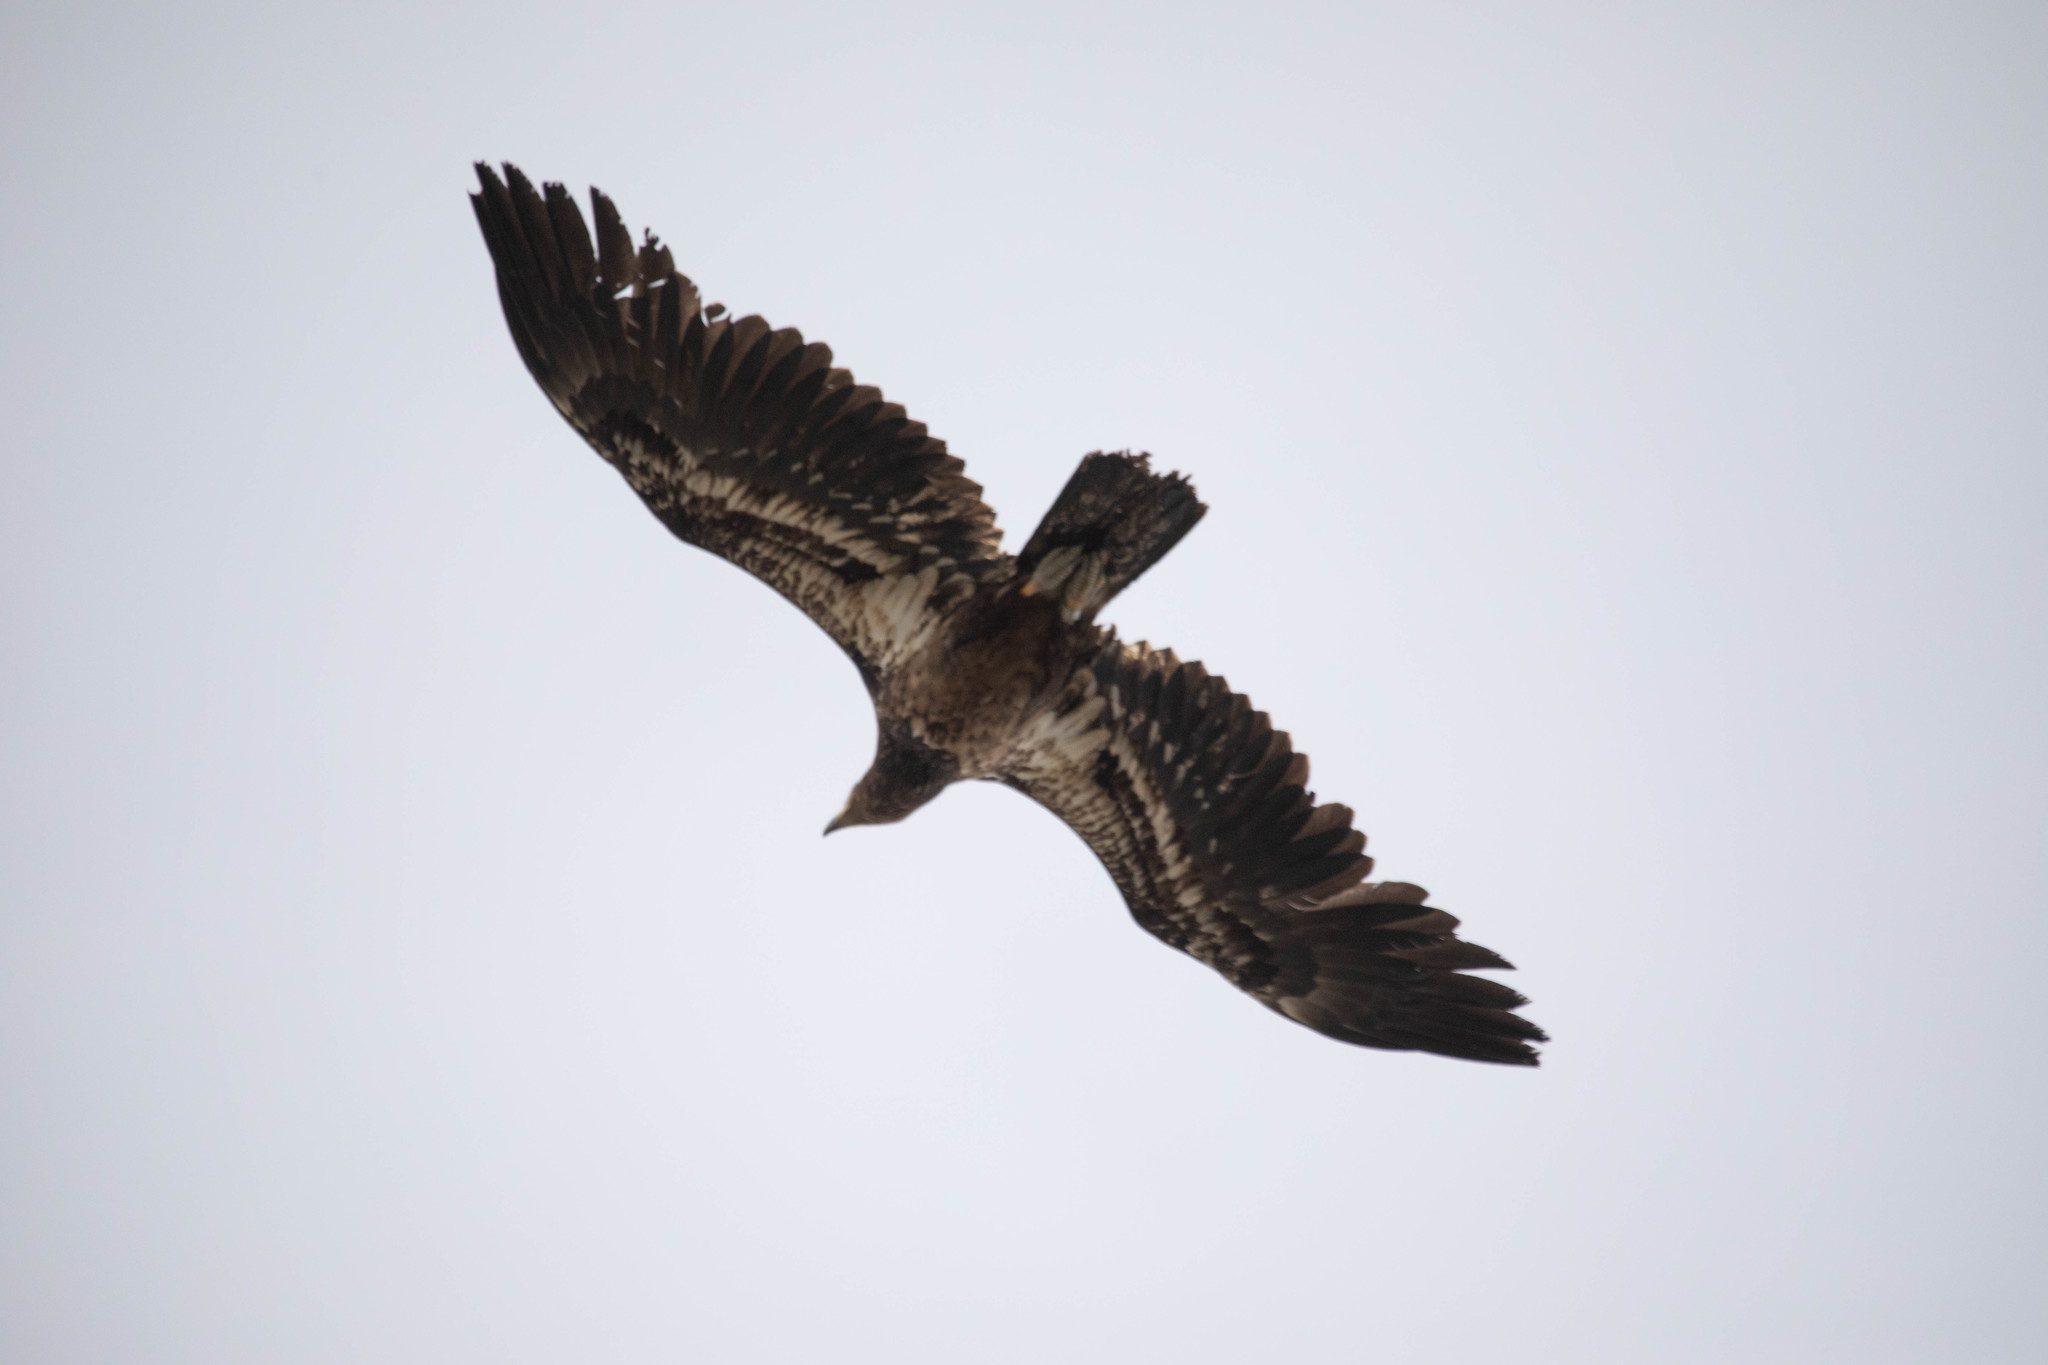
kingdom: Animalia
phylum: Chordata
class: Aves
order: Accipitriformes
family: Accipitridae
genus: Haliaeetus
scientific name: Haliaeetus leucocephalus
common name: Bald eagle
